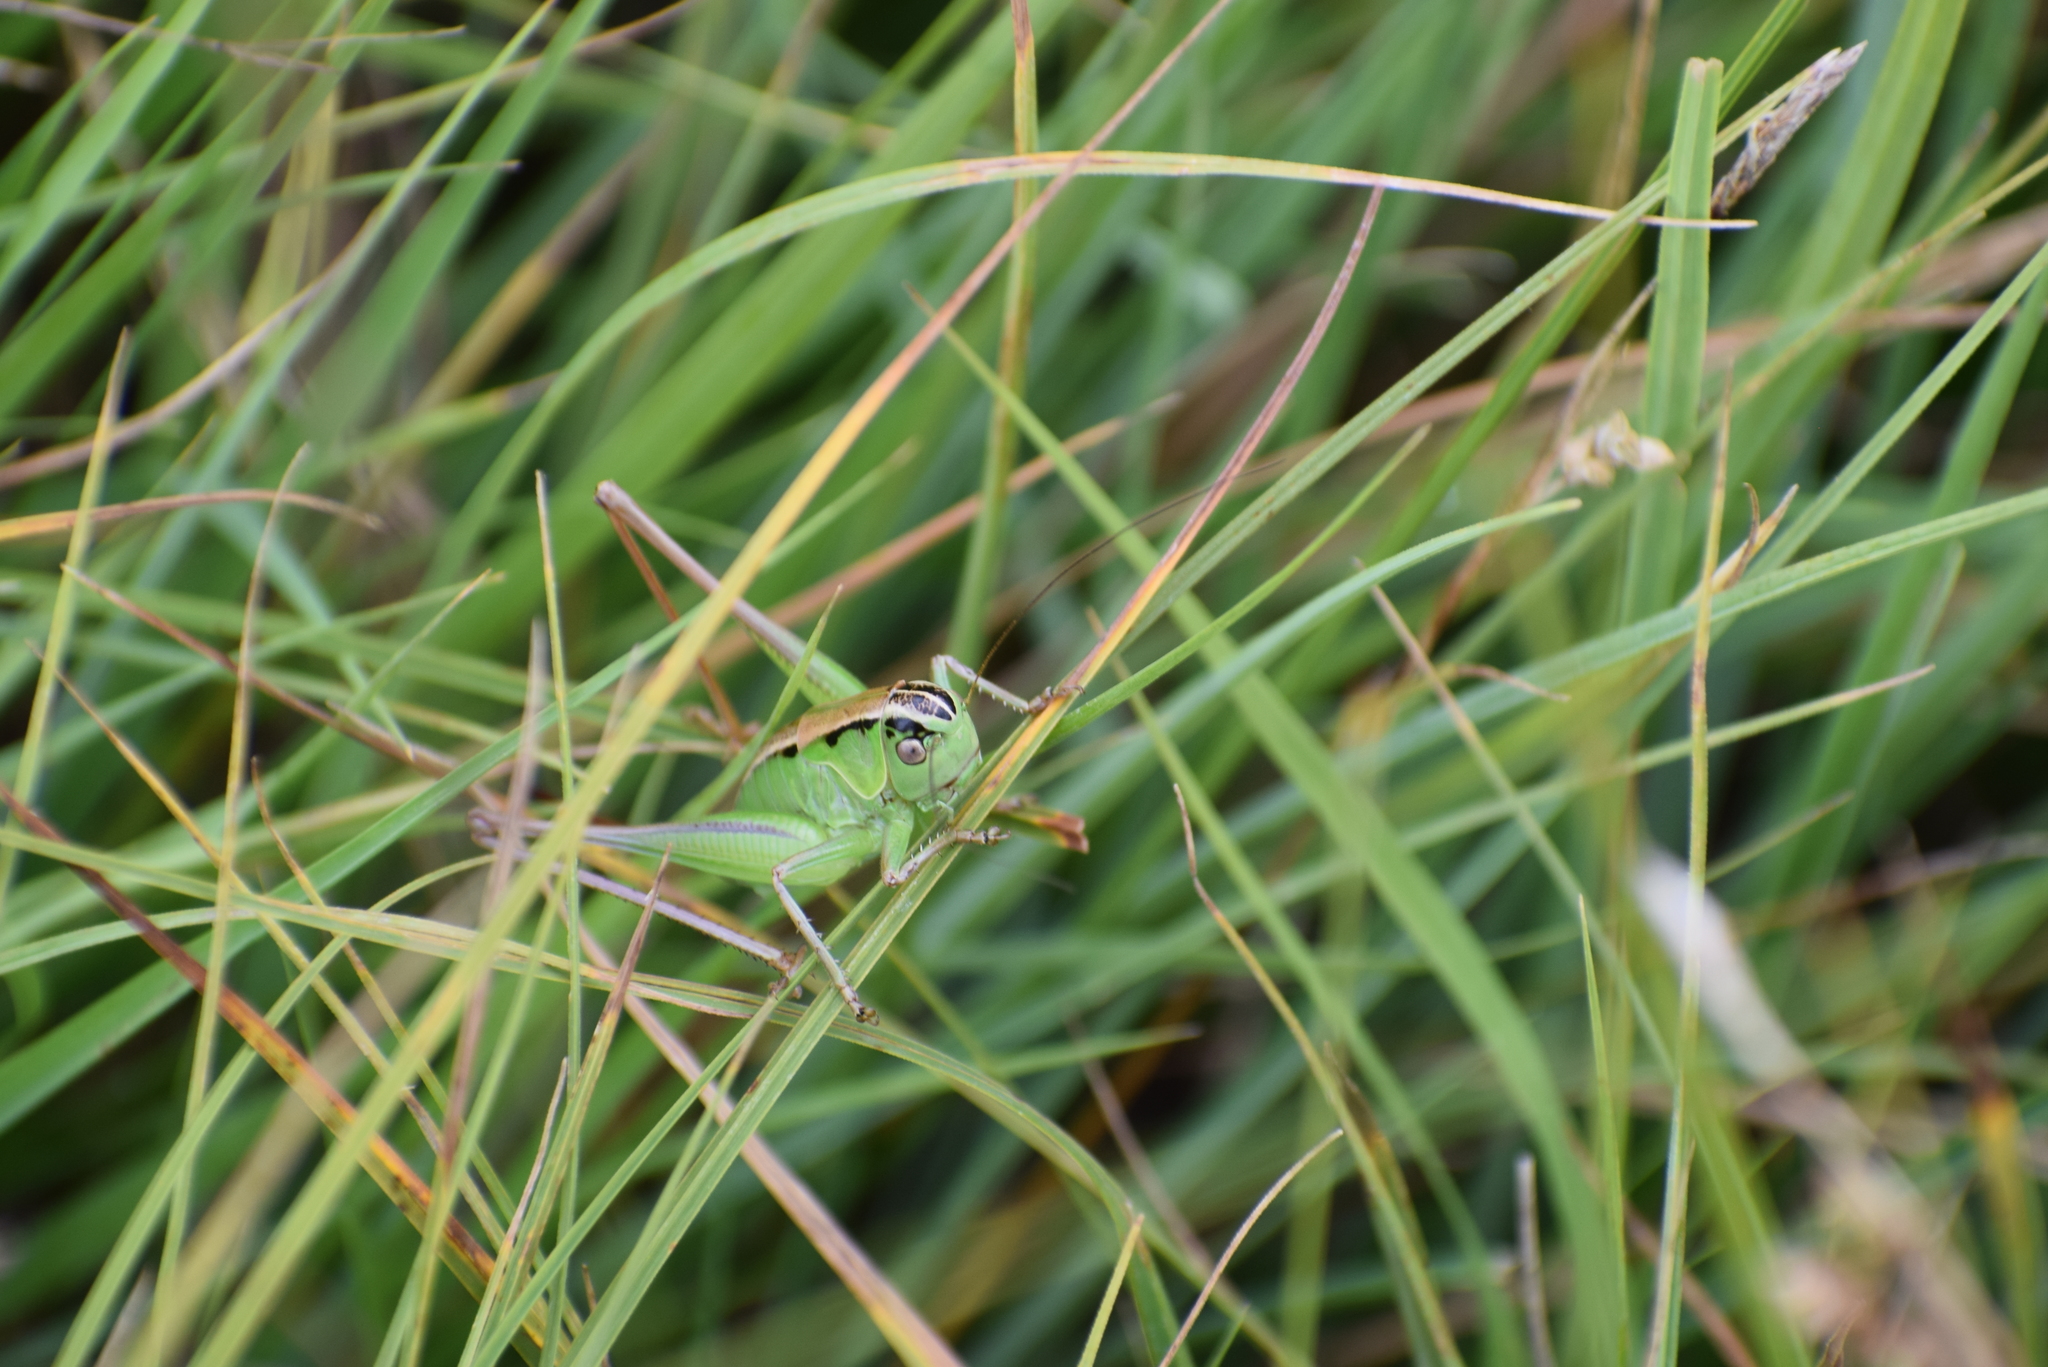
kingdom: Animalia
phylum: Arthropoda
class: Insecta
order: Orthoptera
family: Tettigoniidae
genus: Pholidoptera
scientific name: Pholidoptera frivaldszkyi
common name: Green dark bush-cricket
